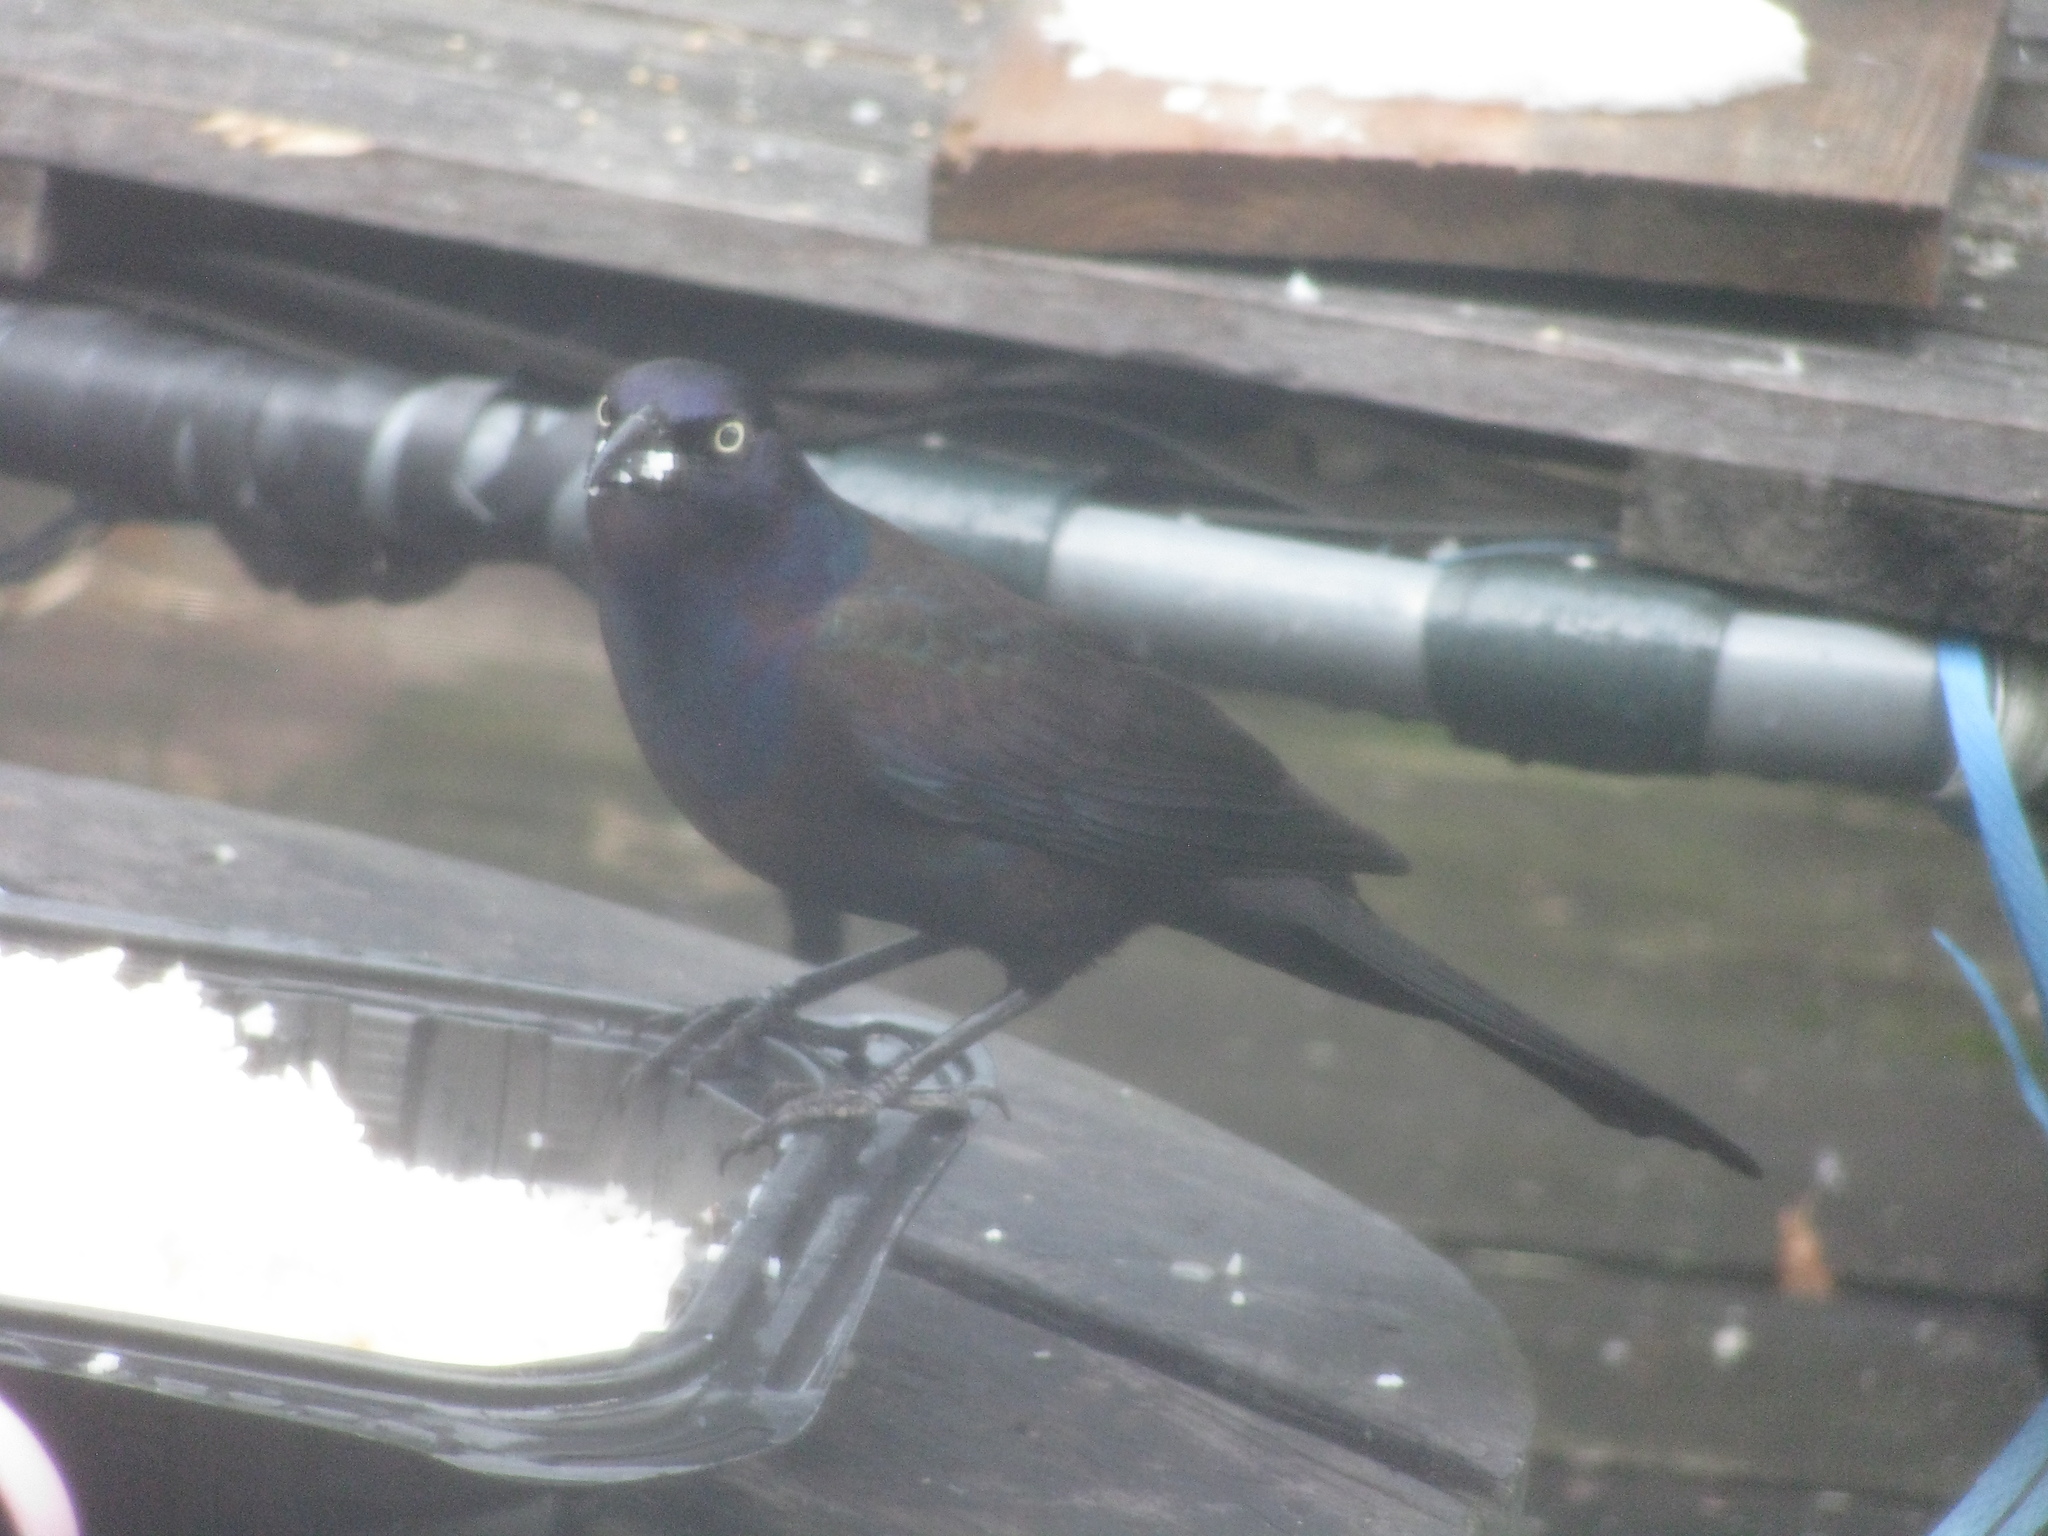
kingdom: Animalia
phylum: Chordata
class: Aves
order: Passeriformes
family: Icteridae
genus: Quiscalus
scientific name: Quiscalus quiscula
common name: Common grackle
